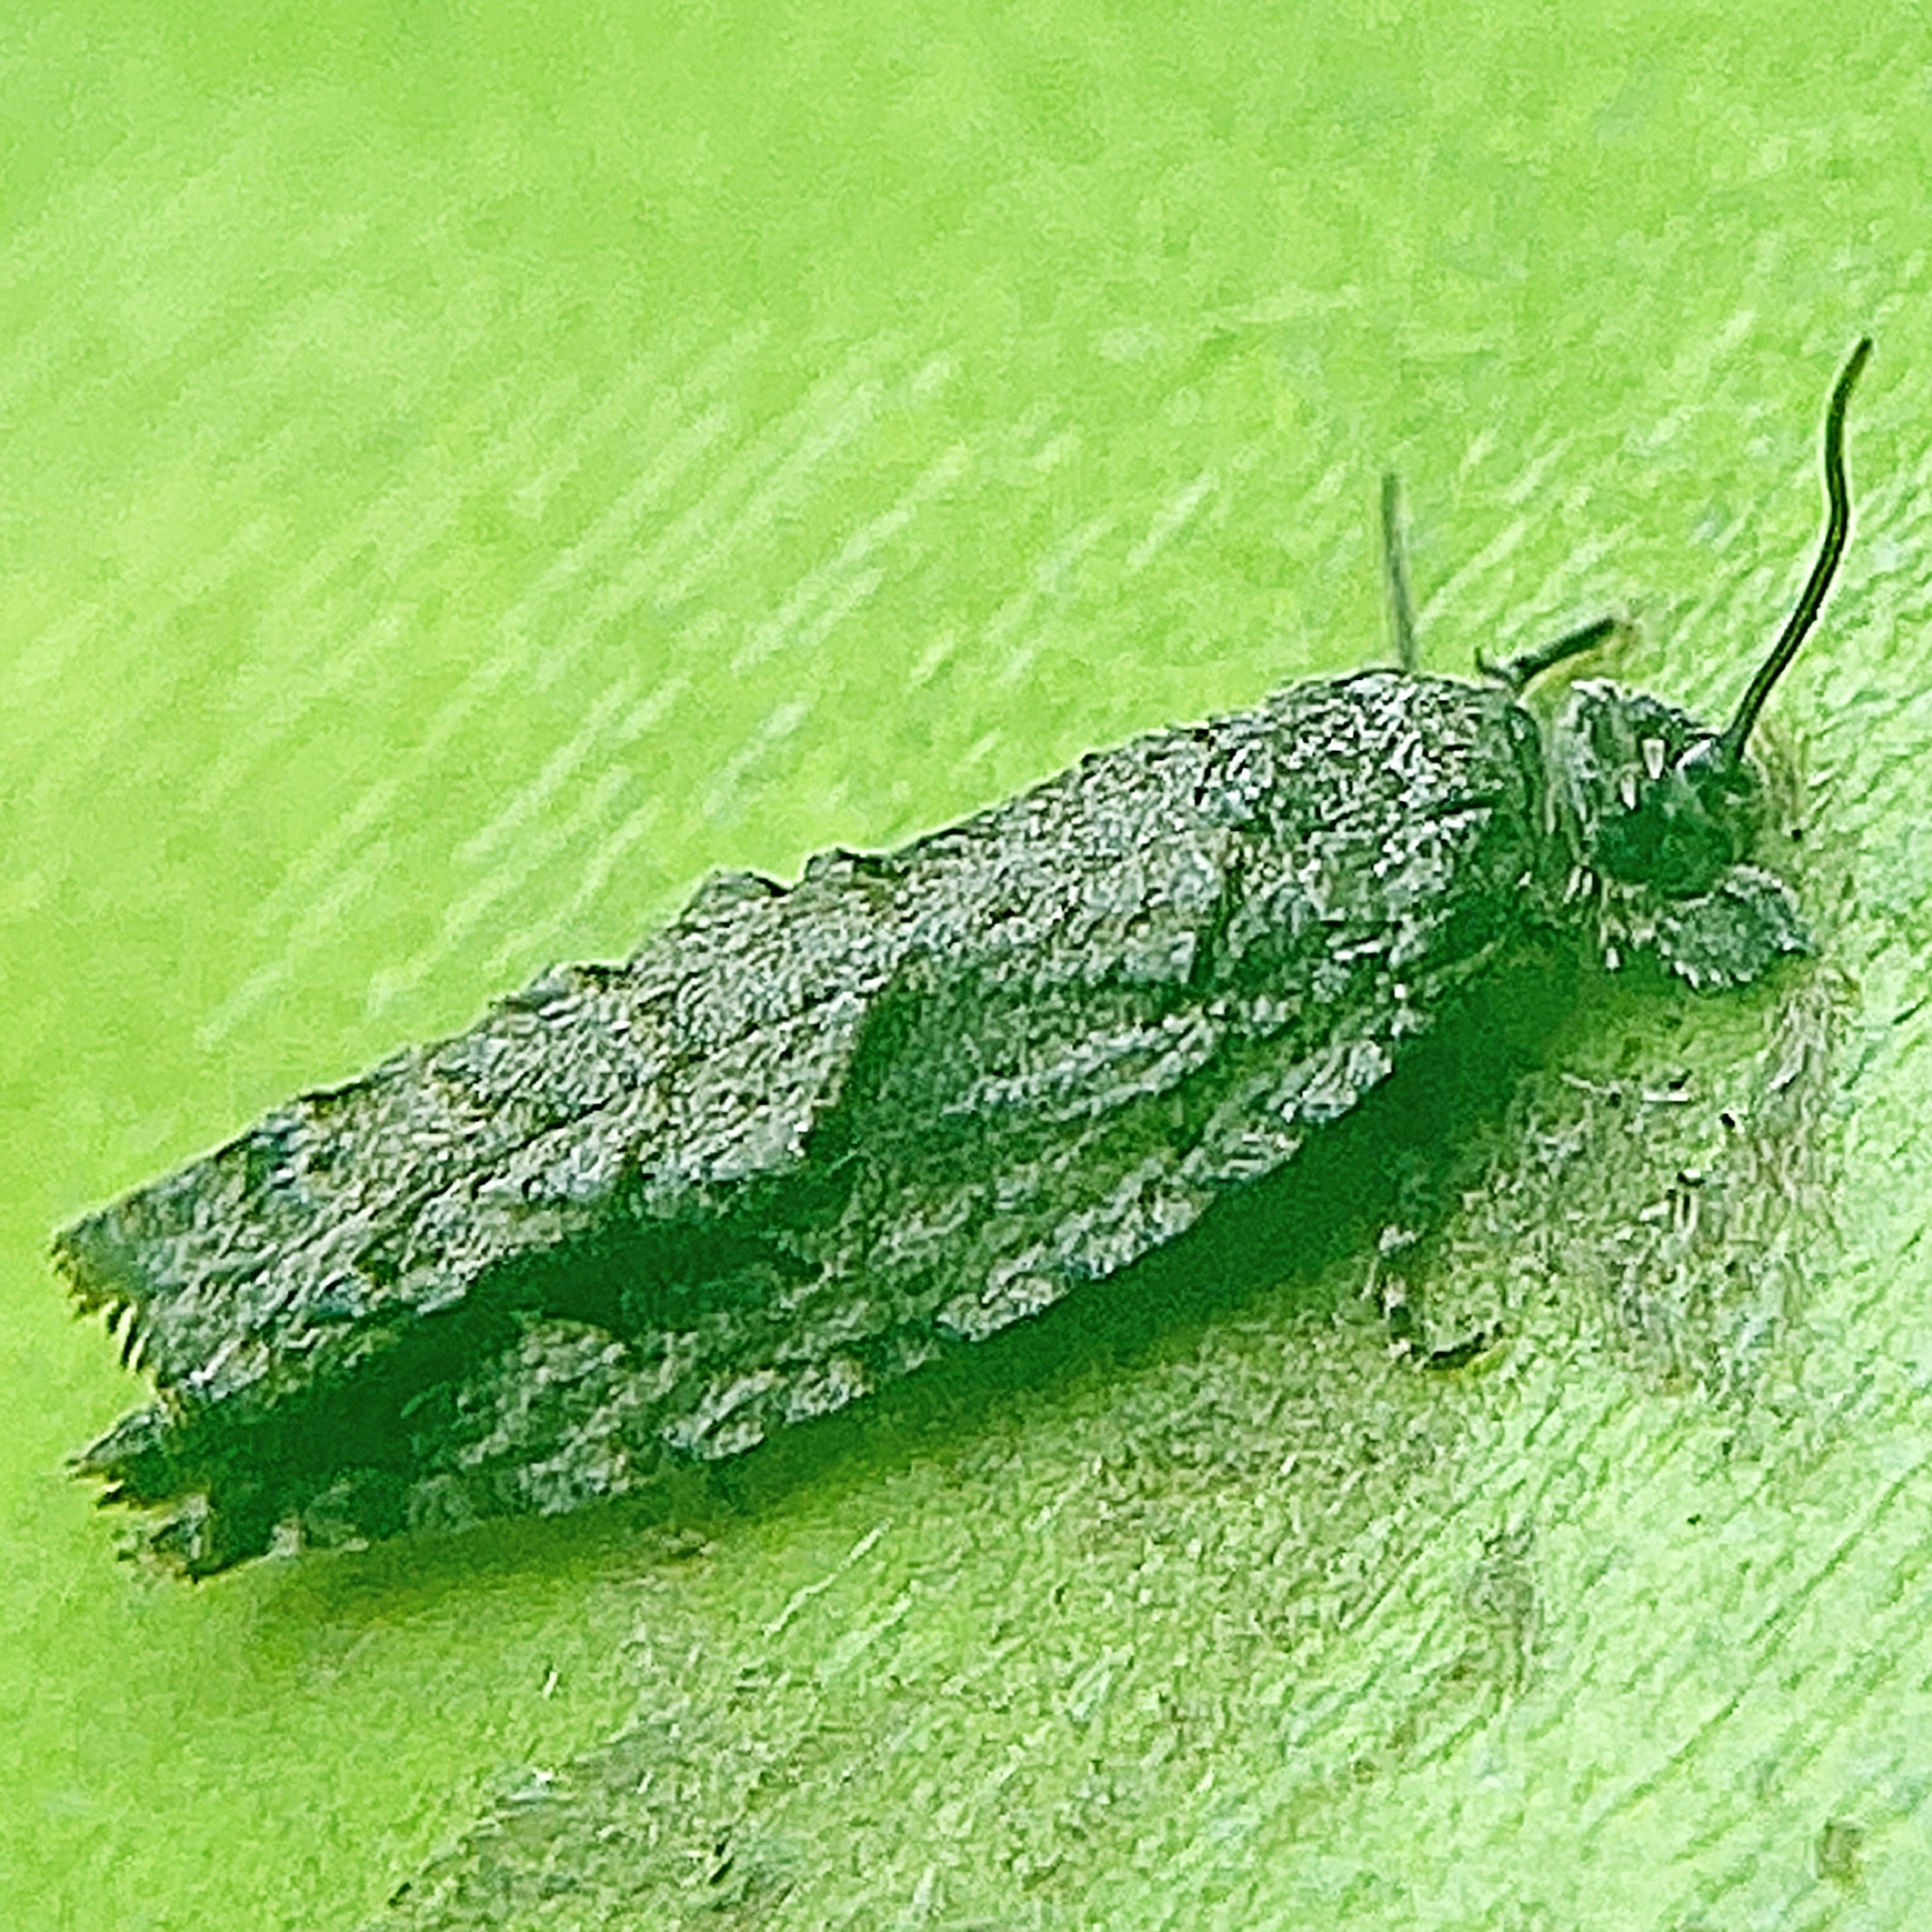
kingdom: Animalia
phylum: Arthropoda
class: Insecta
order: Lepidoptera
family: Tortricidae
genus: Gretchena
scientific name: Gretchena bolliana
